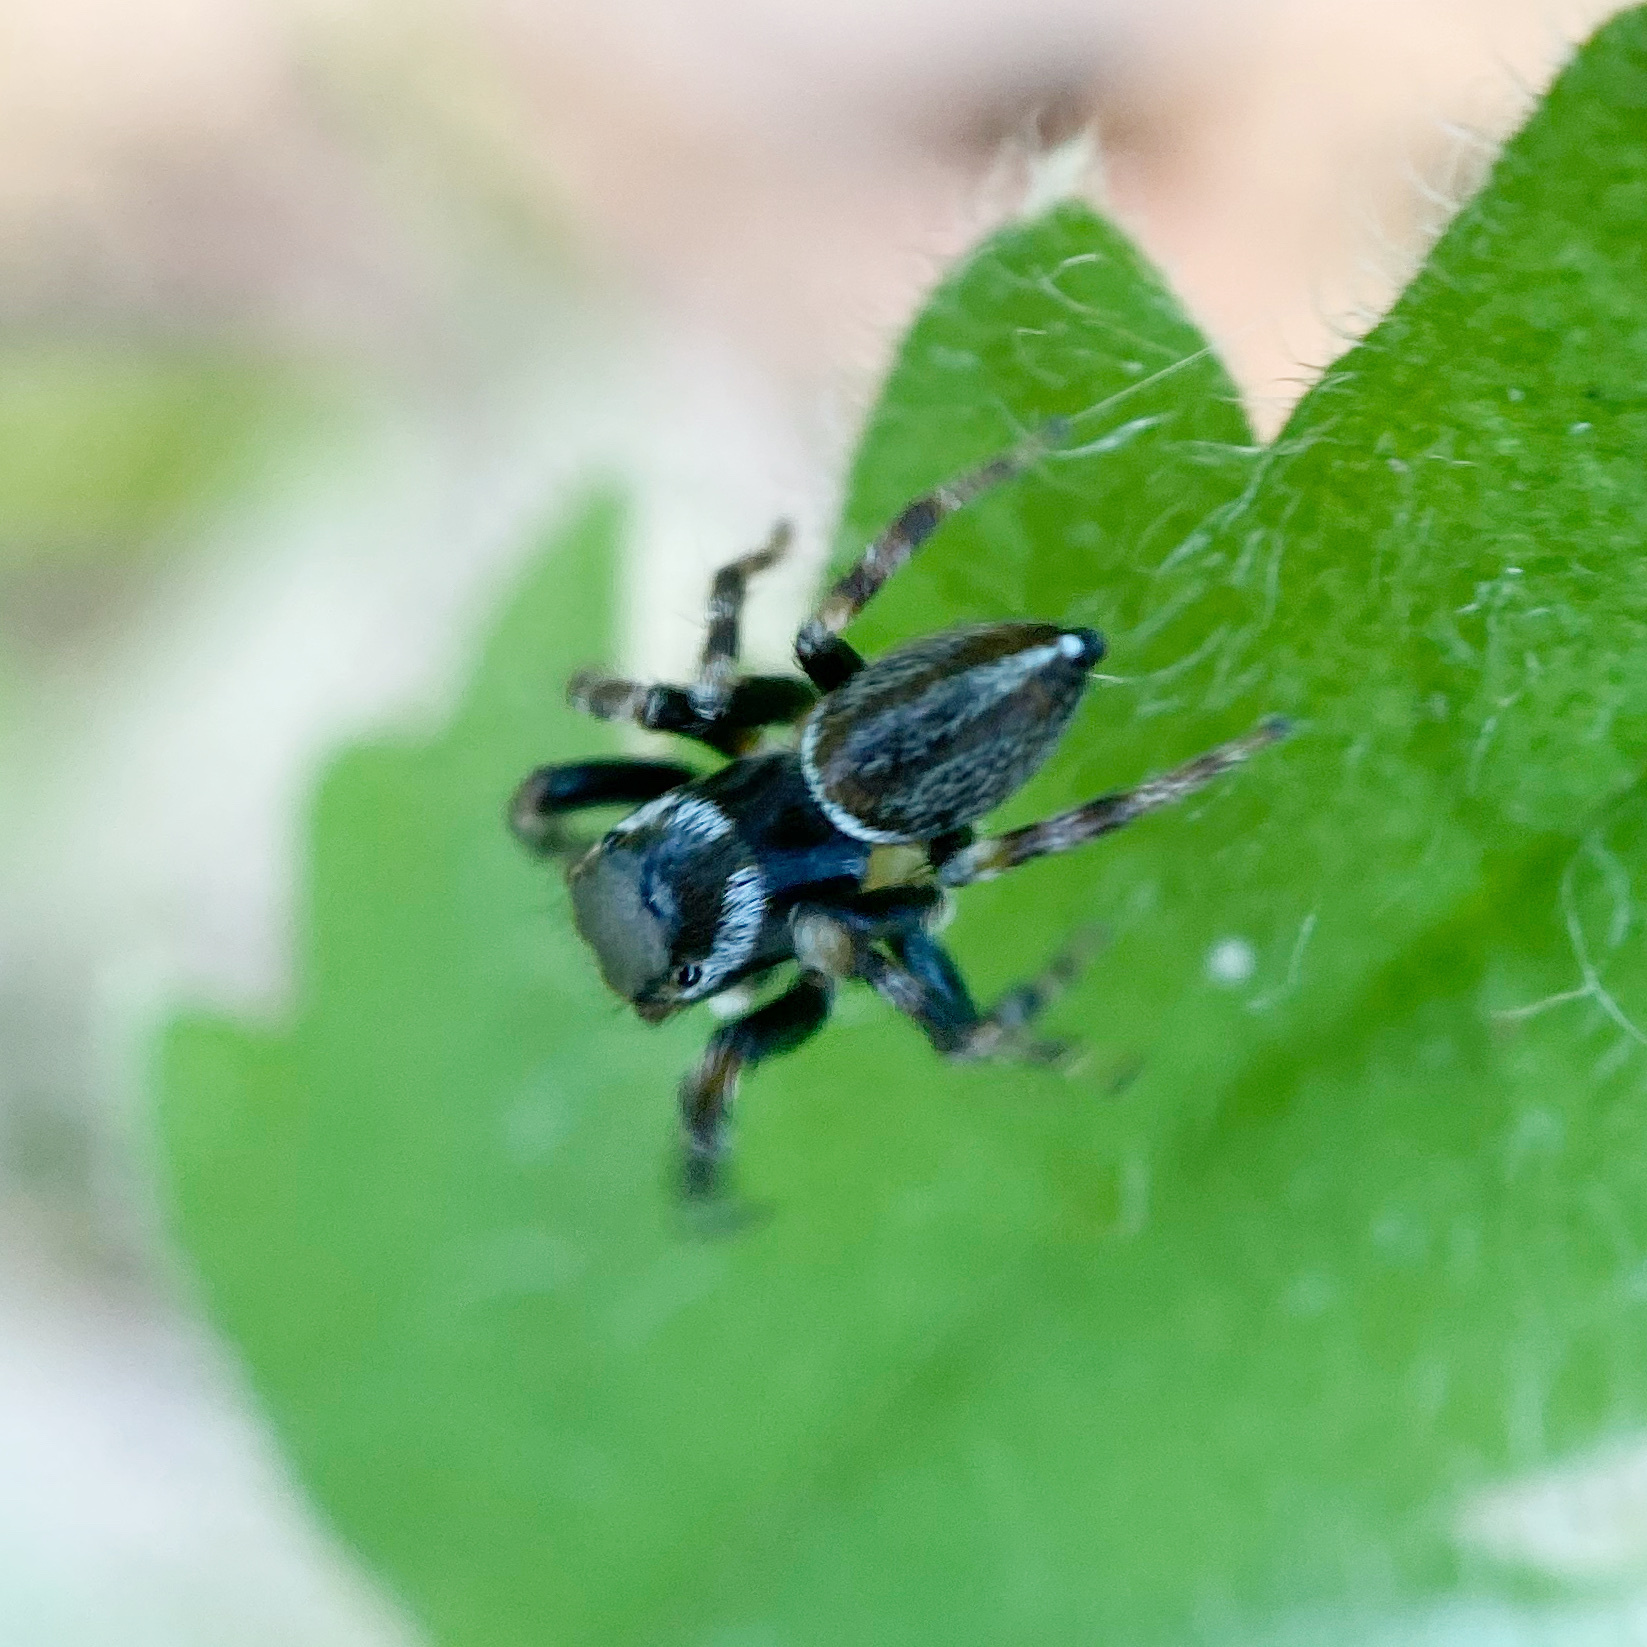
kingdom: Animalia
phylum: Arthropoda
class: Arachnida
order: Araneae
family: Salticidae
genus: Maratus
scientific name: Maratus scutulatus
